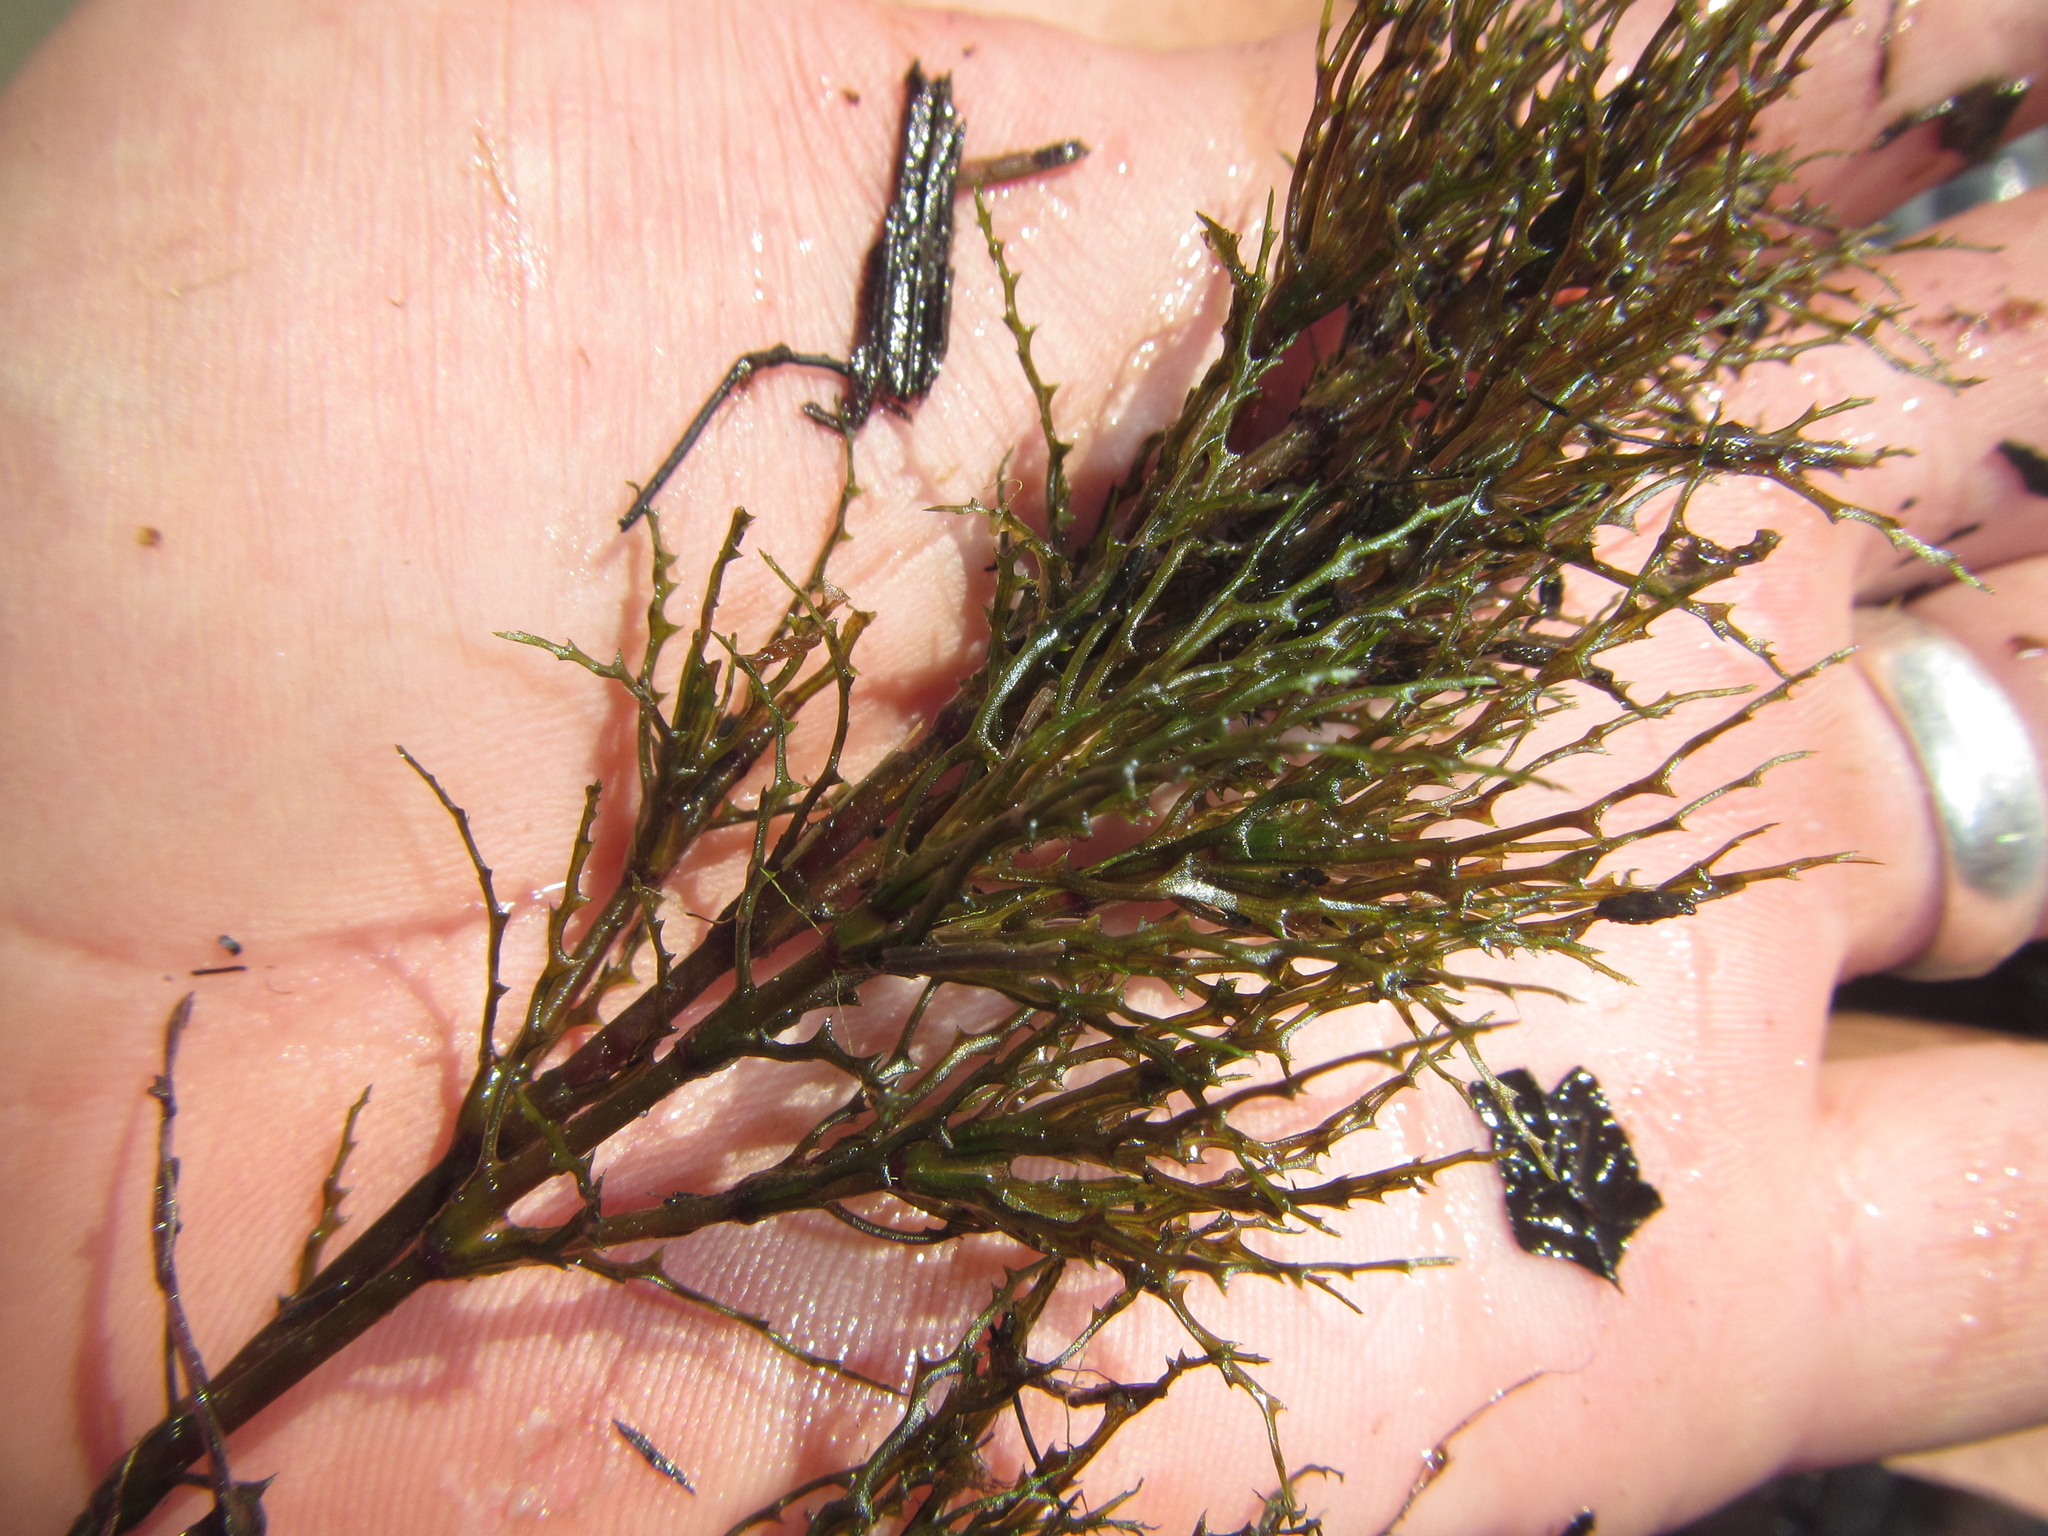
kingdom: Plantae
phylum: Tracheophyta
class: Liliopsida
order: Alismatales
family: Hydrocharitaceae
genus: Najas
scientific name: Najas horrida
